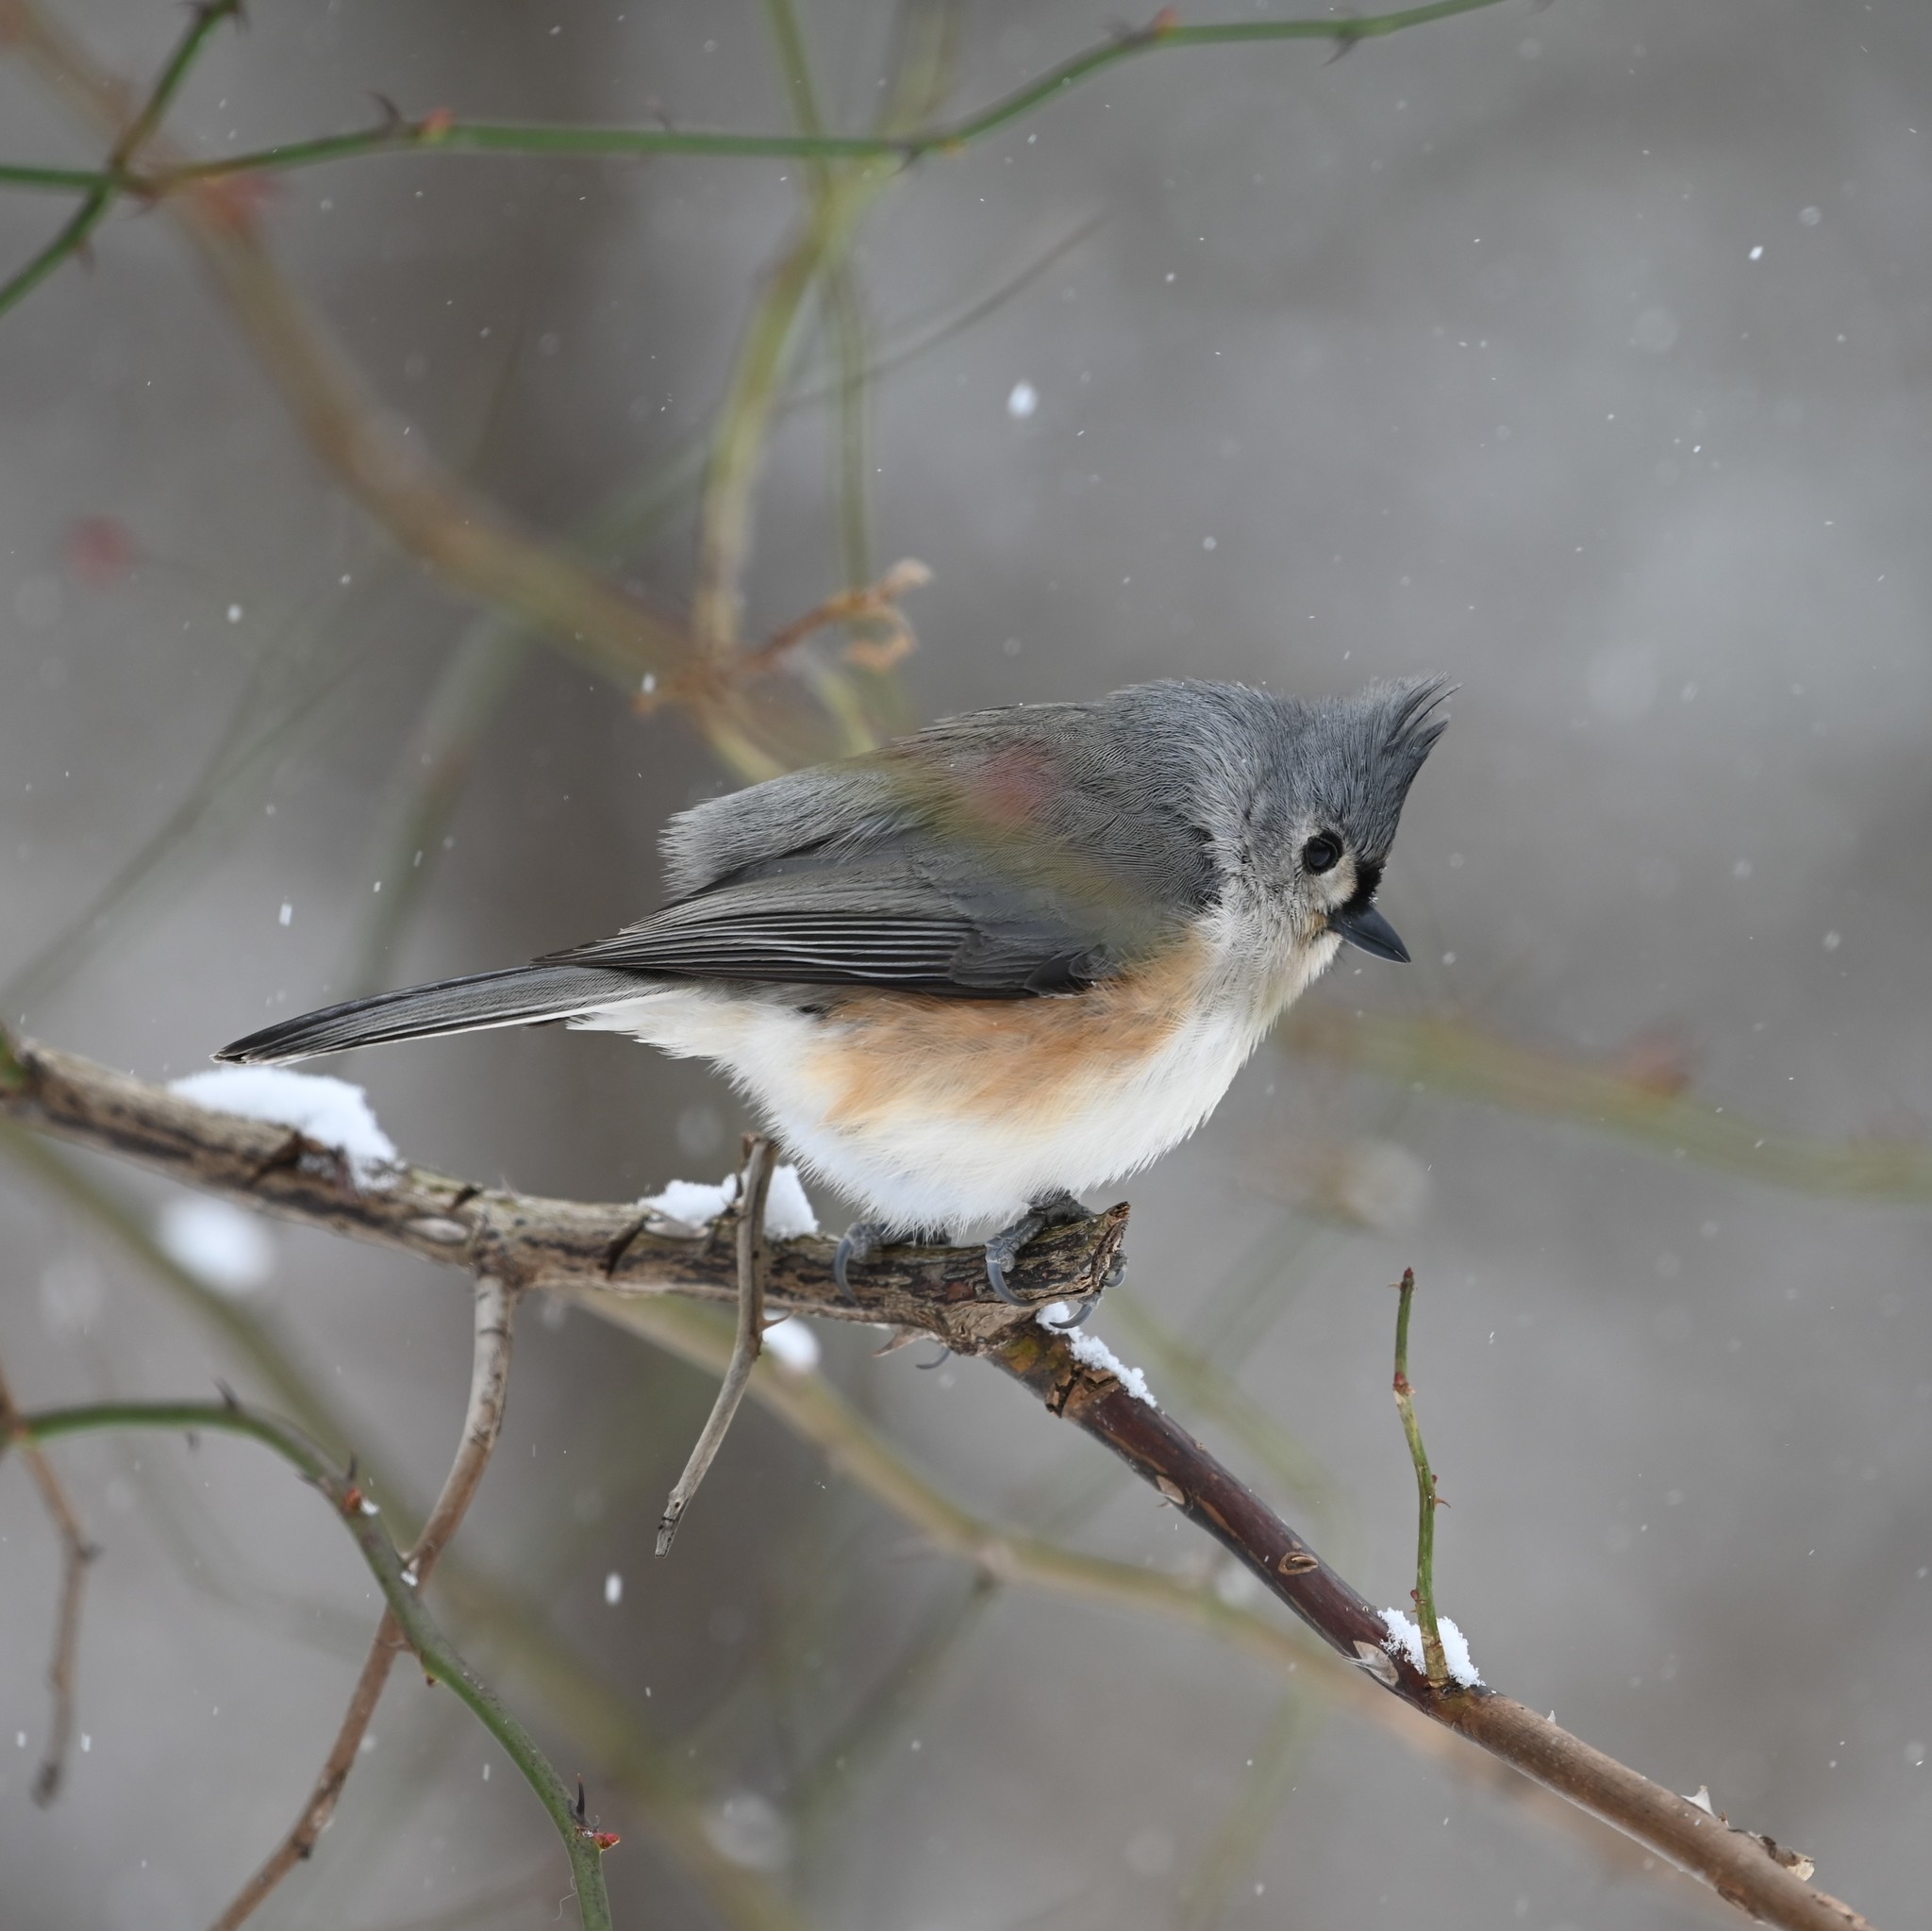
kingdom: Animalia
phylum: Chordata
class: Aves
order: Passeriformes
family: Paridae
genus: Baeolophus
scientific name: Baeolophus bicolor
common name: Tufted titmouse
